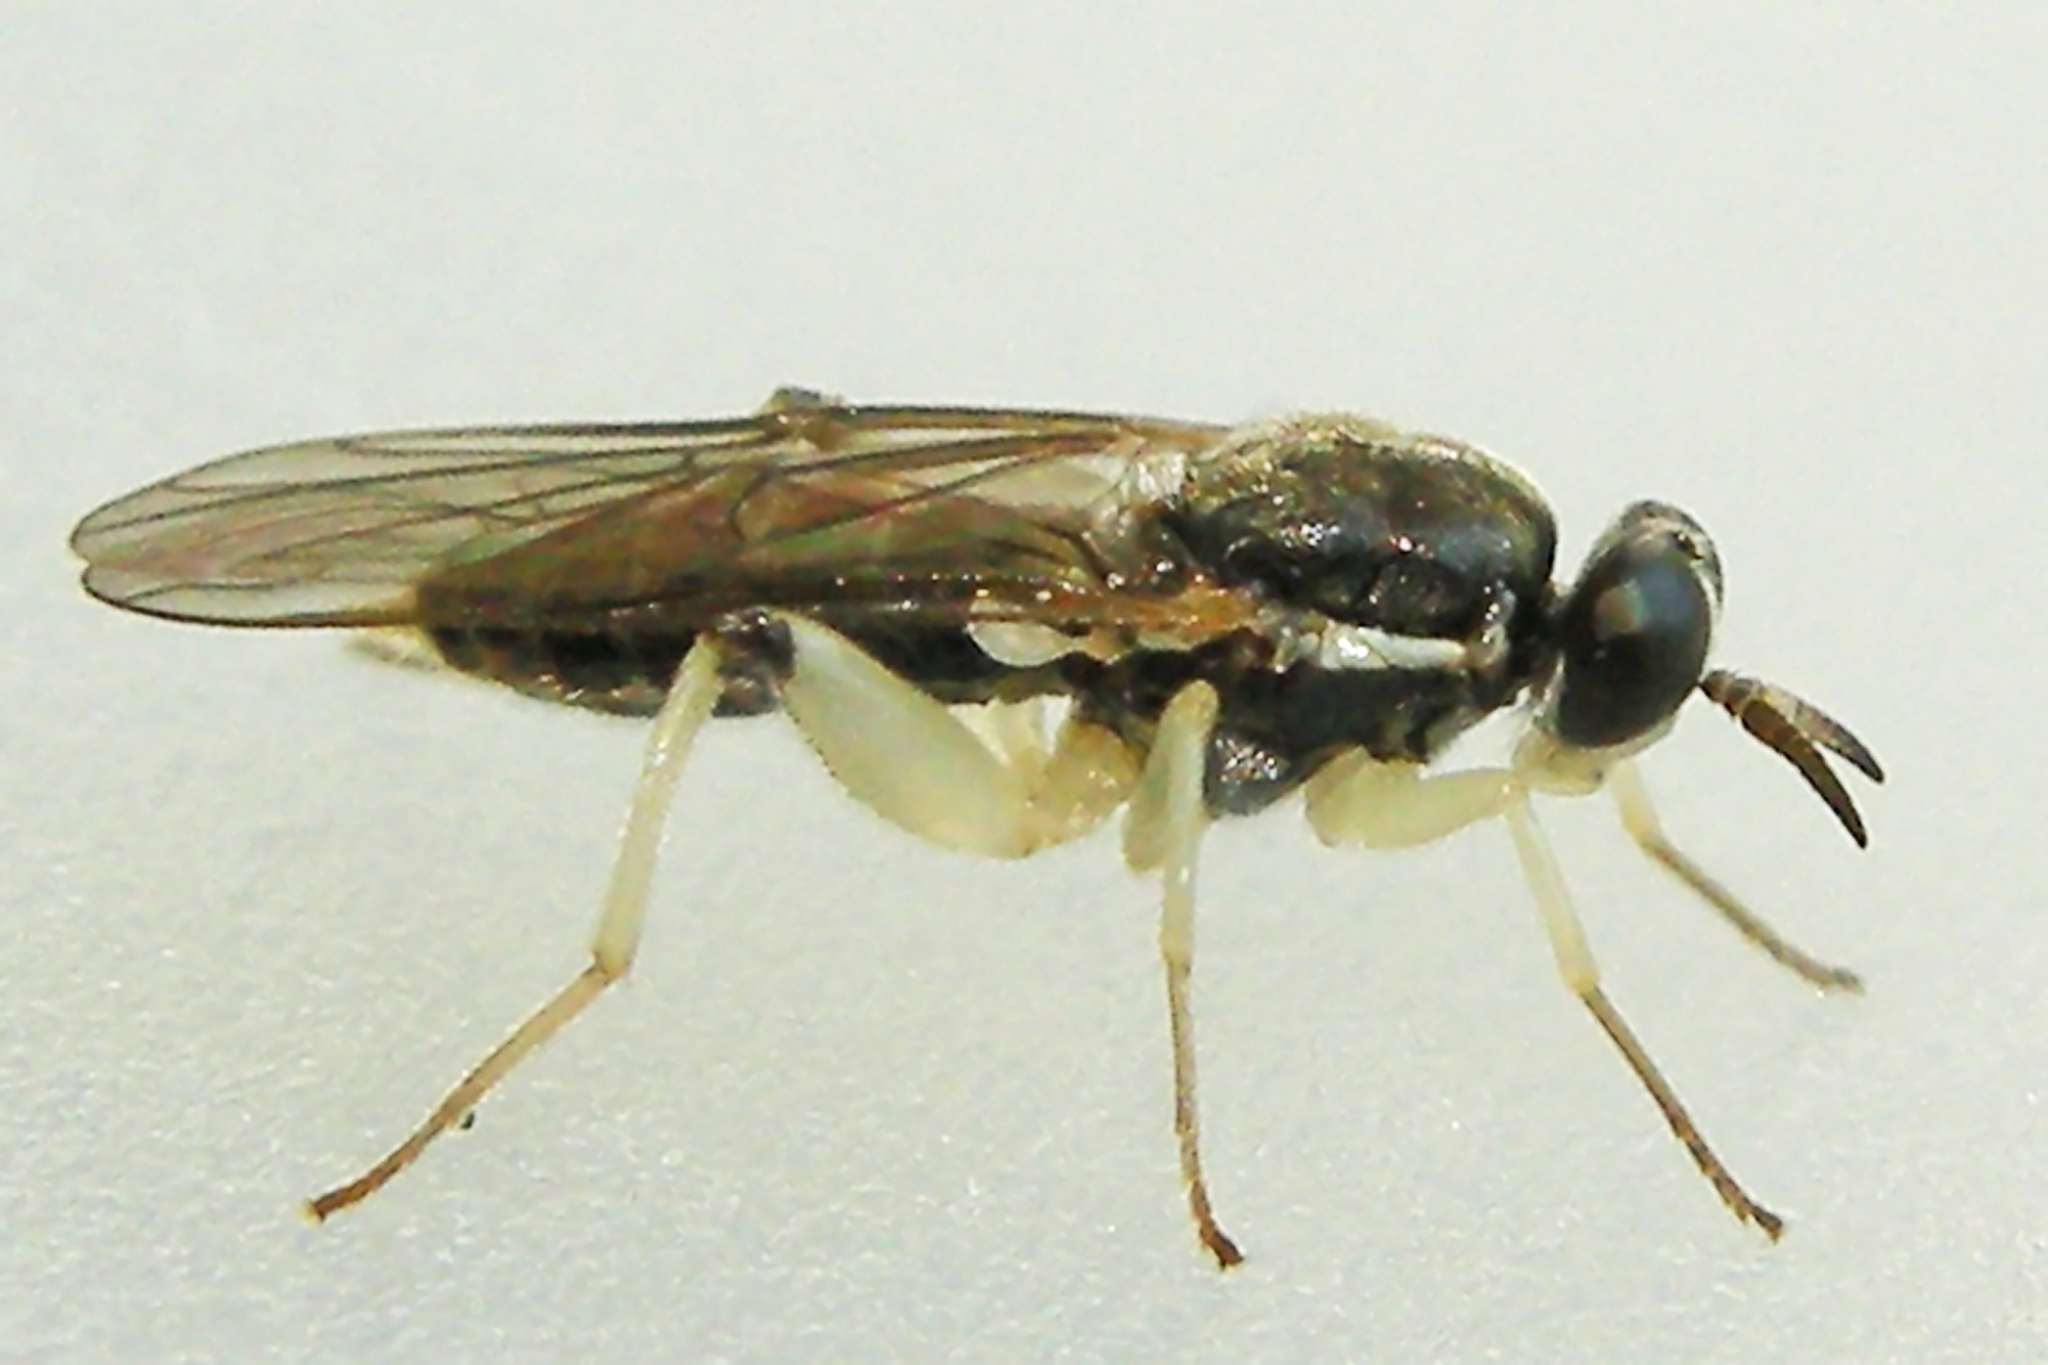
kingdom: Animalia
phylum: Arthropoda
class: Insecta
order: Diptera
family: Xylomyidae
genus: Solva
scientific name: Solva pallipes
